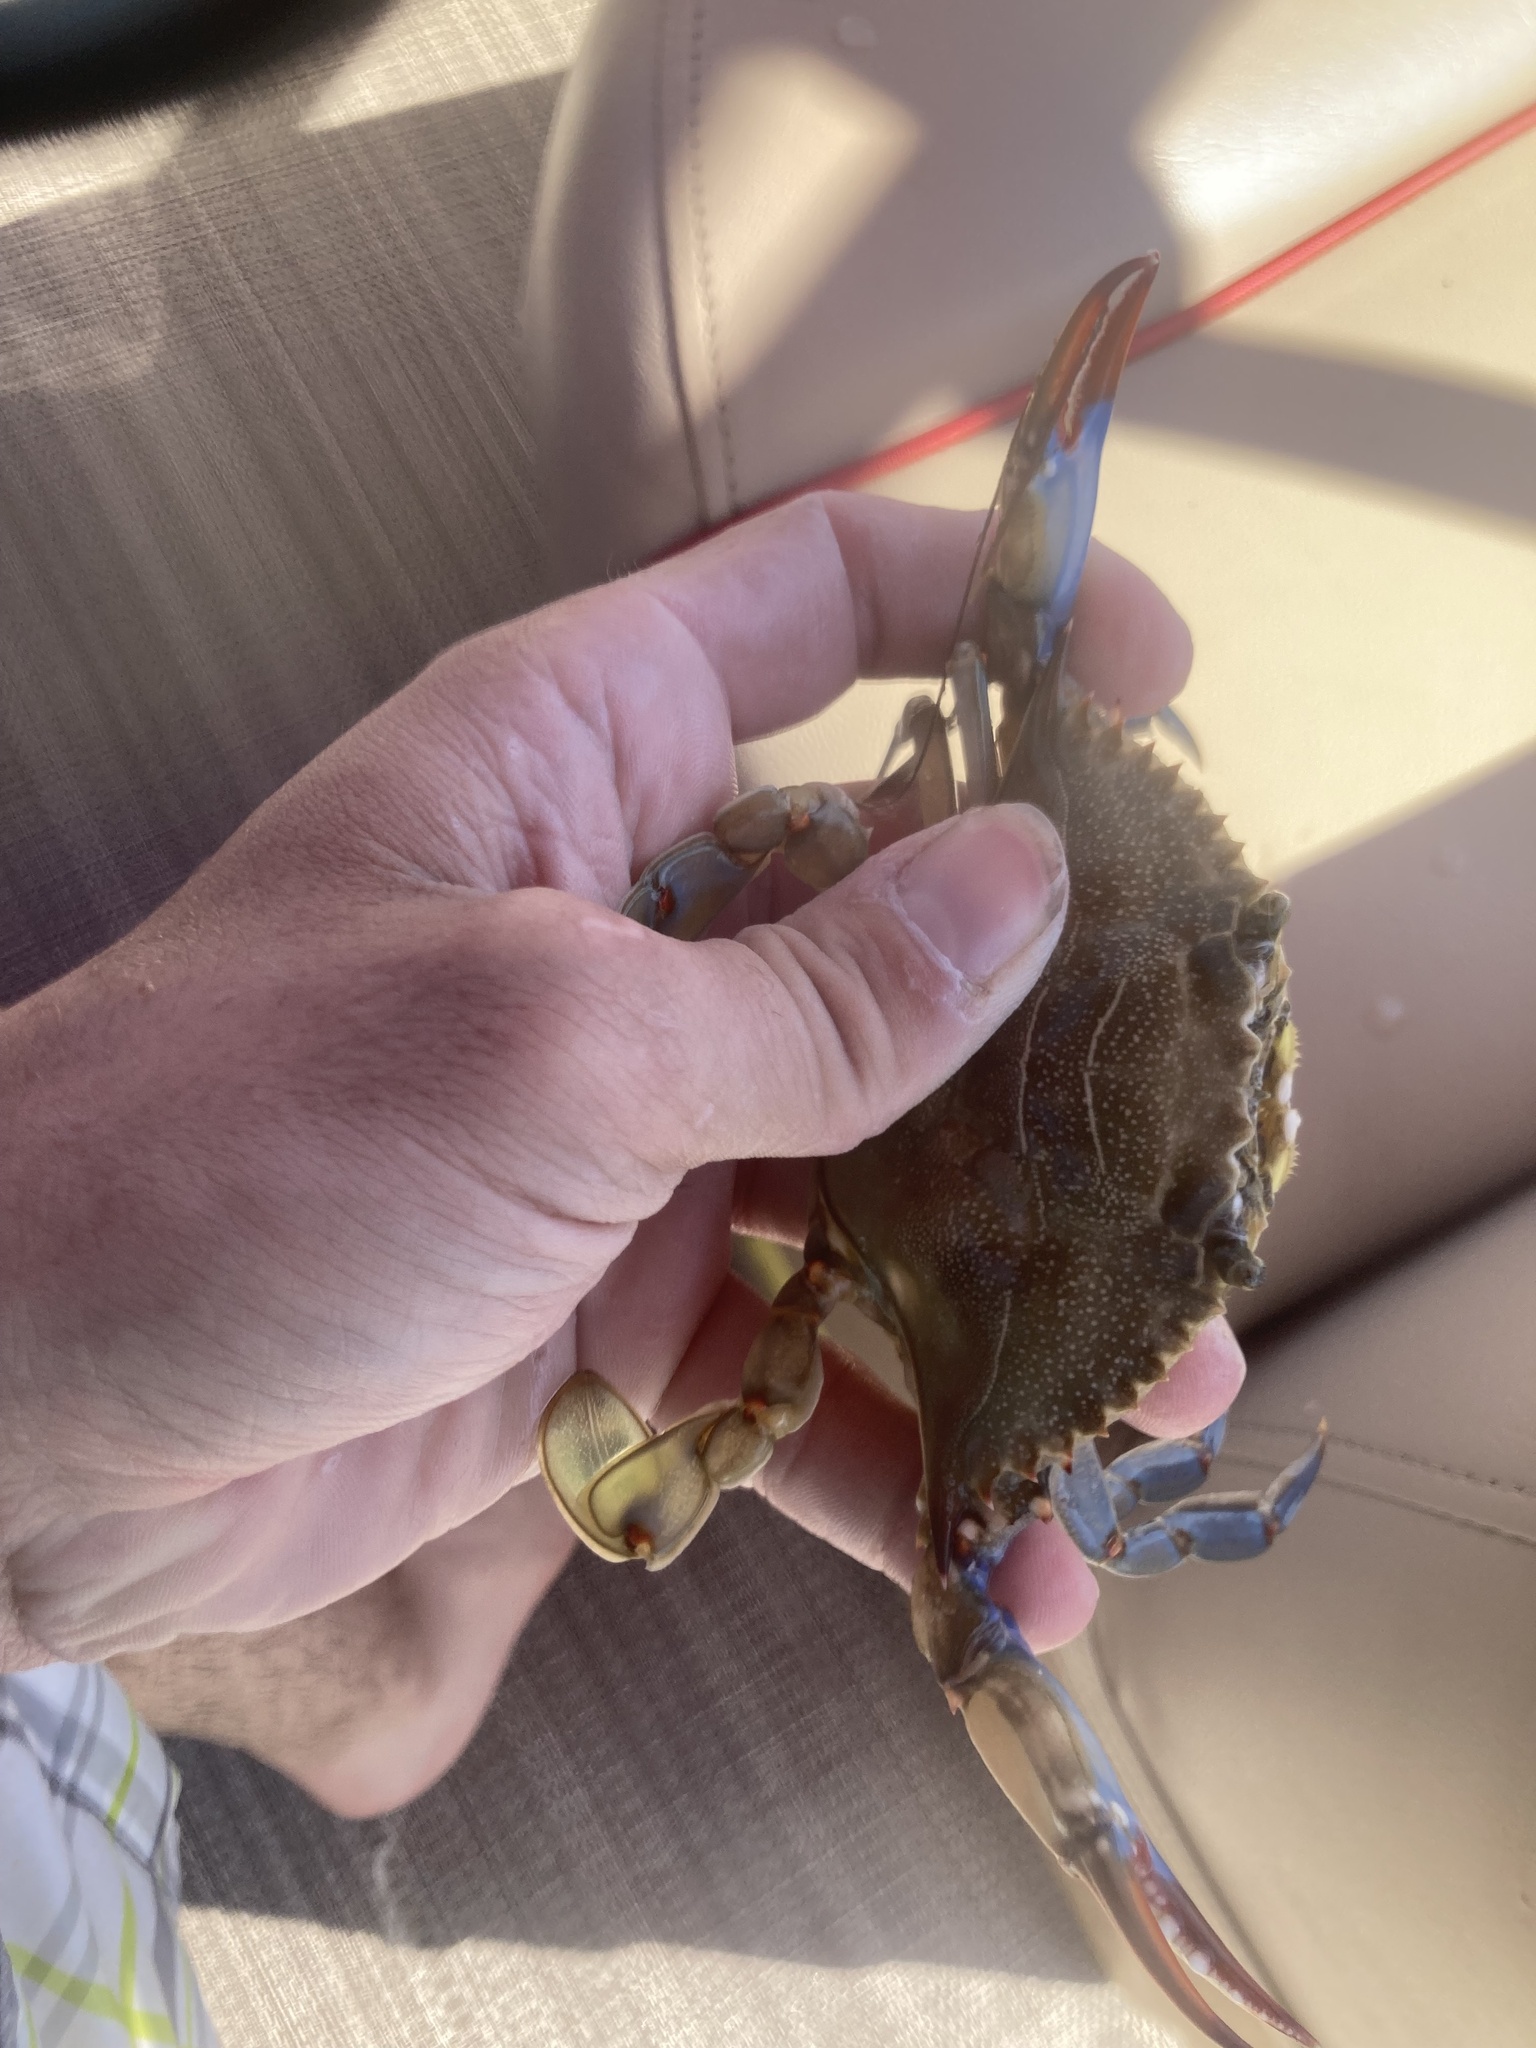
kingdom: Animalia
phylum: Arthropoda
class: Malacostraca
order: Decapoda
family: Portunidae
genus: Callinectes
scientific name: Callinectes sapidus
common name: Blue crab
